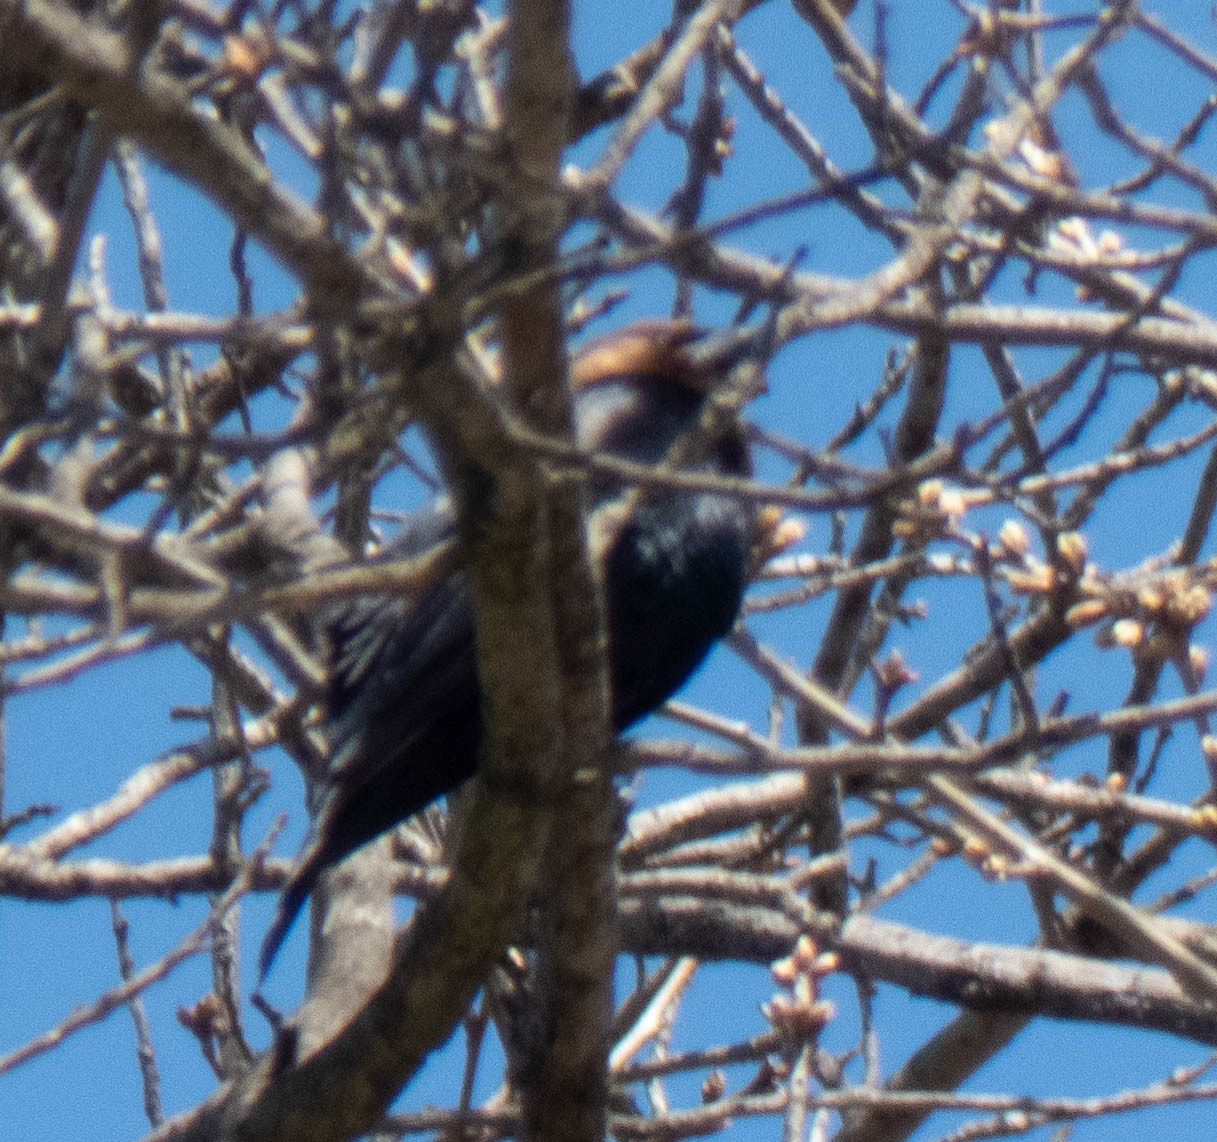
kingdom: Animalia
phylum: Chordata
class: Aves
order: Passeriformes
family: Icteridae
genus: Molothrus
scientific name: Molothrus ater
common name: Brown-headed cowbird
